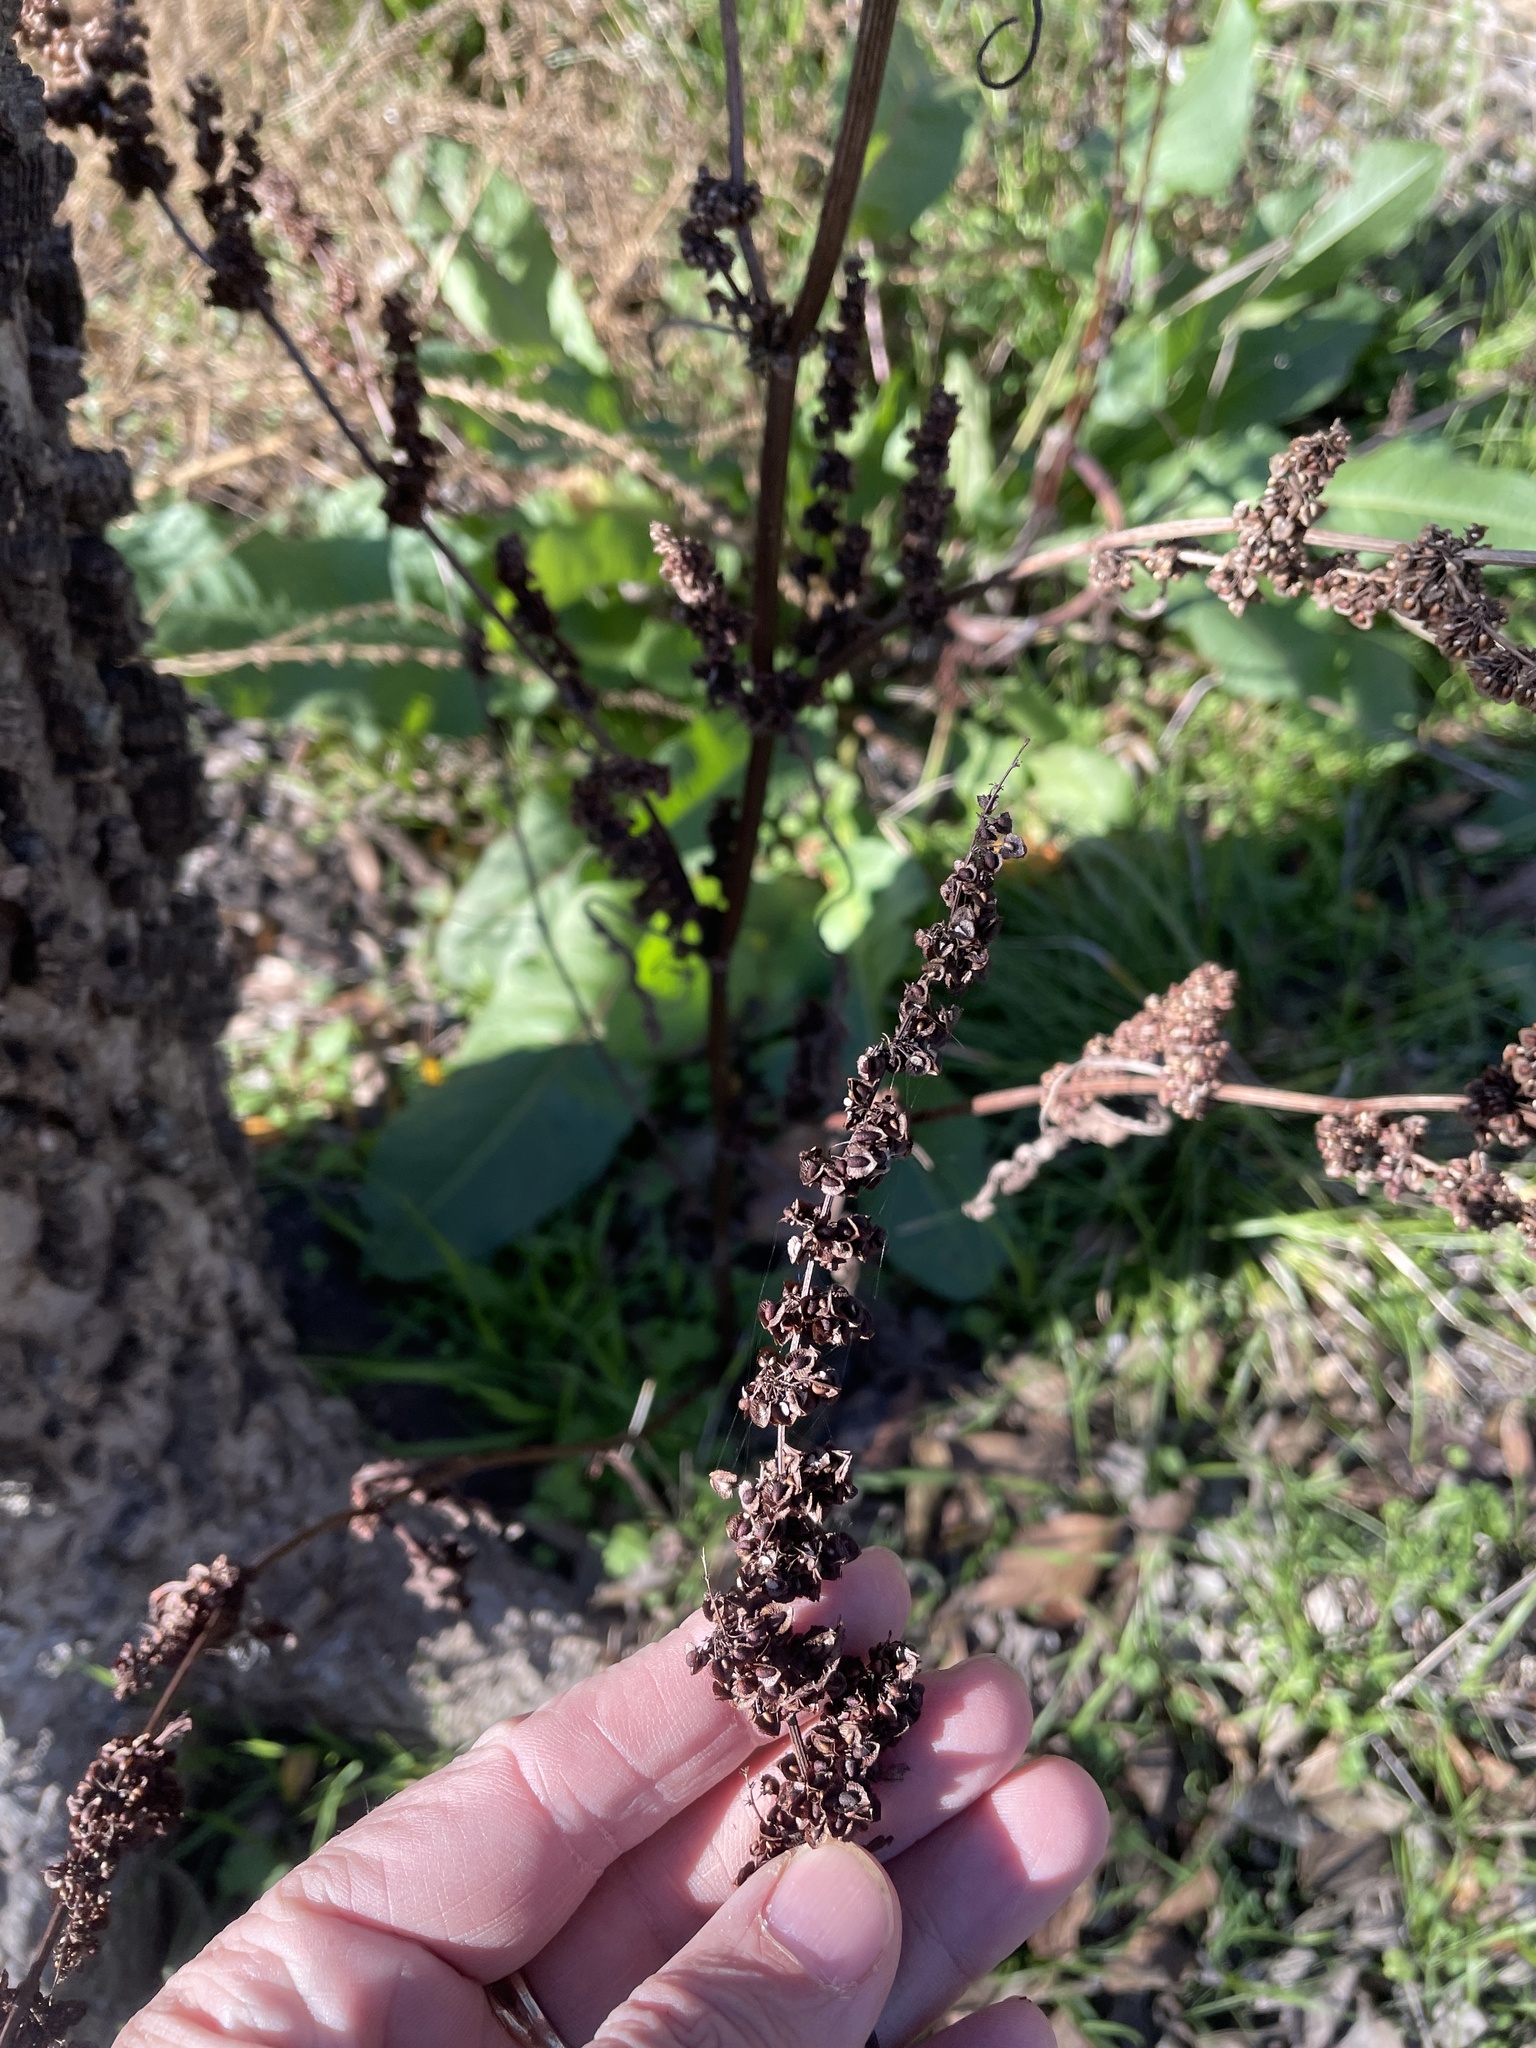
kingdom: Plantae
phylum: Tracheophyta
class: Magnoliopsida
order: Caryophyllales
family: Polygonaceae
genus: Rumex
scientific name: Rumex crispus
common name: Curled dock
